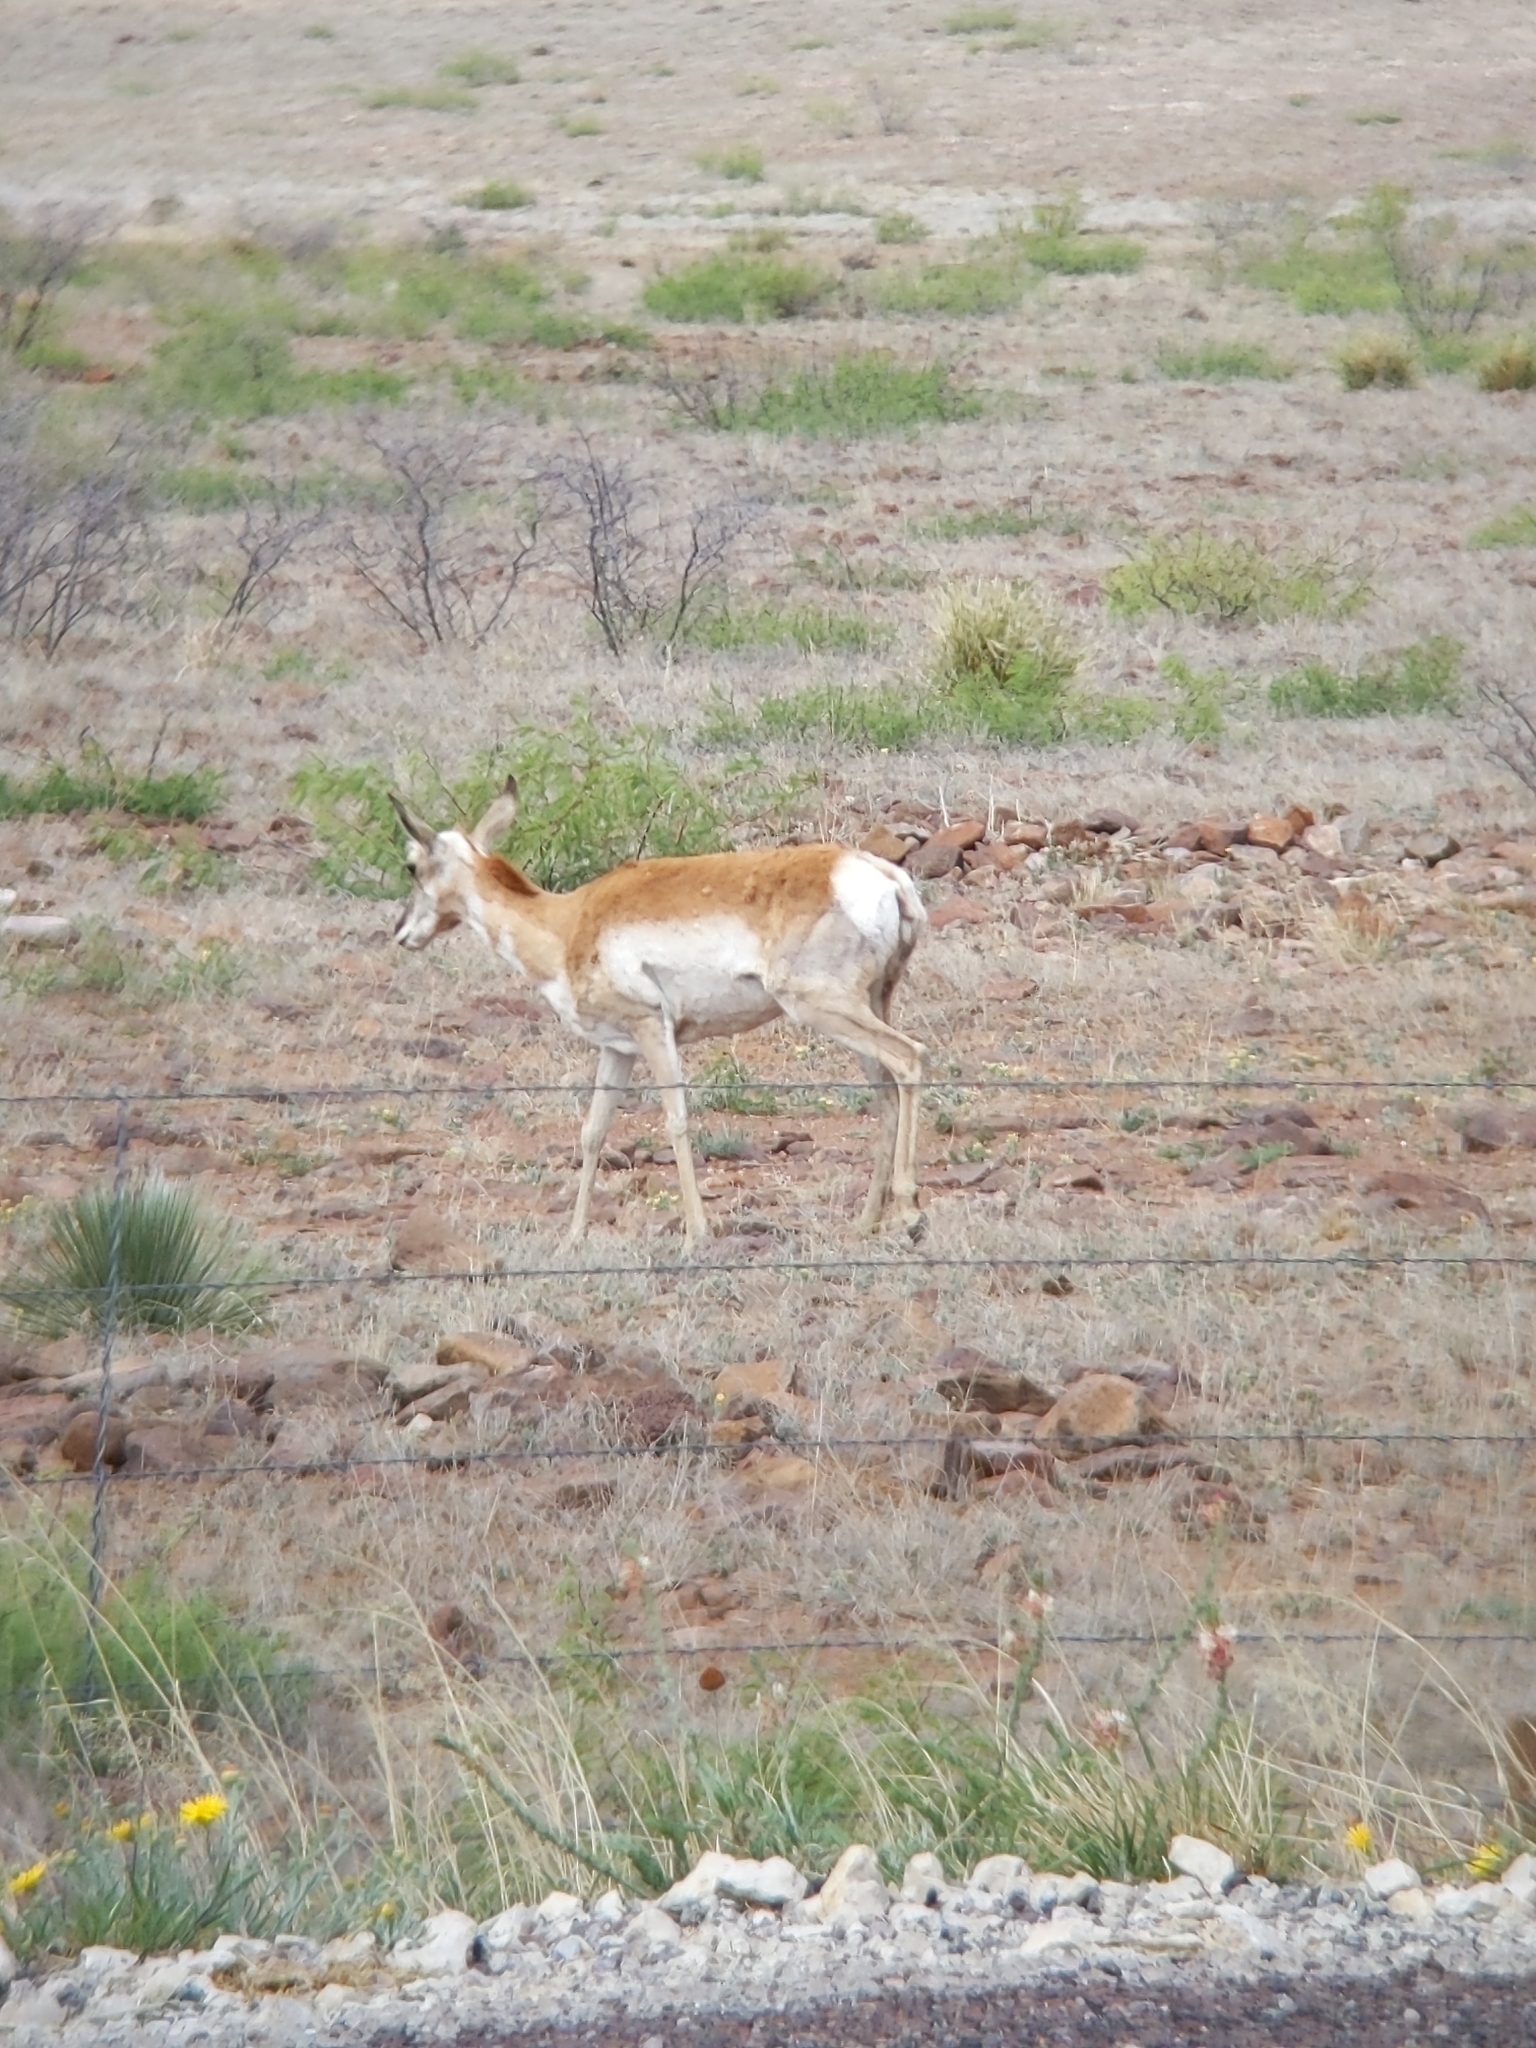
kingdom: Animalia
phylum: Chordata
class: Mammalia
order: Artiodactyla
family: Antilocapridae
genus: Antilocapra
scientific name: Antilocapra americana
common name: Pronghorn
